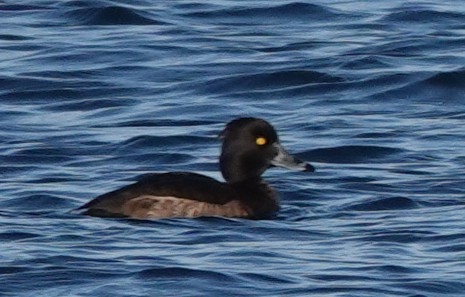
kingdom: Animalia
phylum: Chordata
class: Aves
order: Anseriformes
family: Anatidae
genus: Aythya
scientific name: Aythya fuligula
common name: Tufted duck
